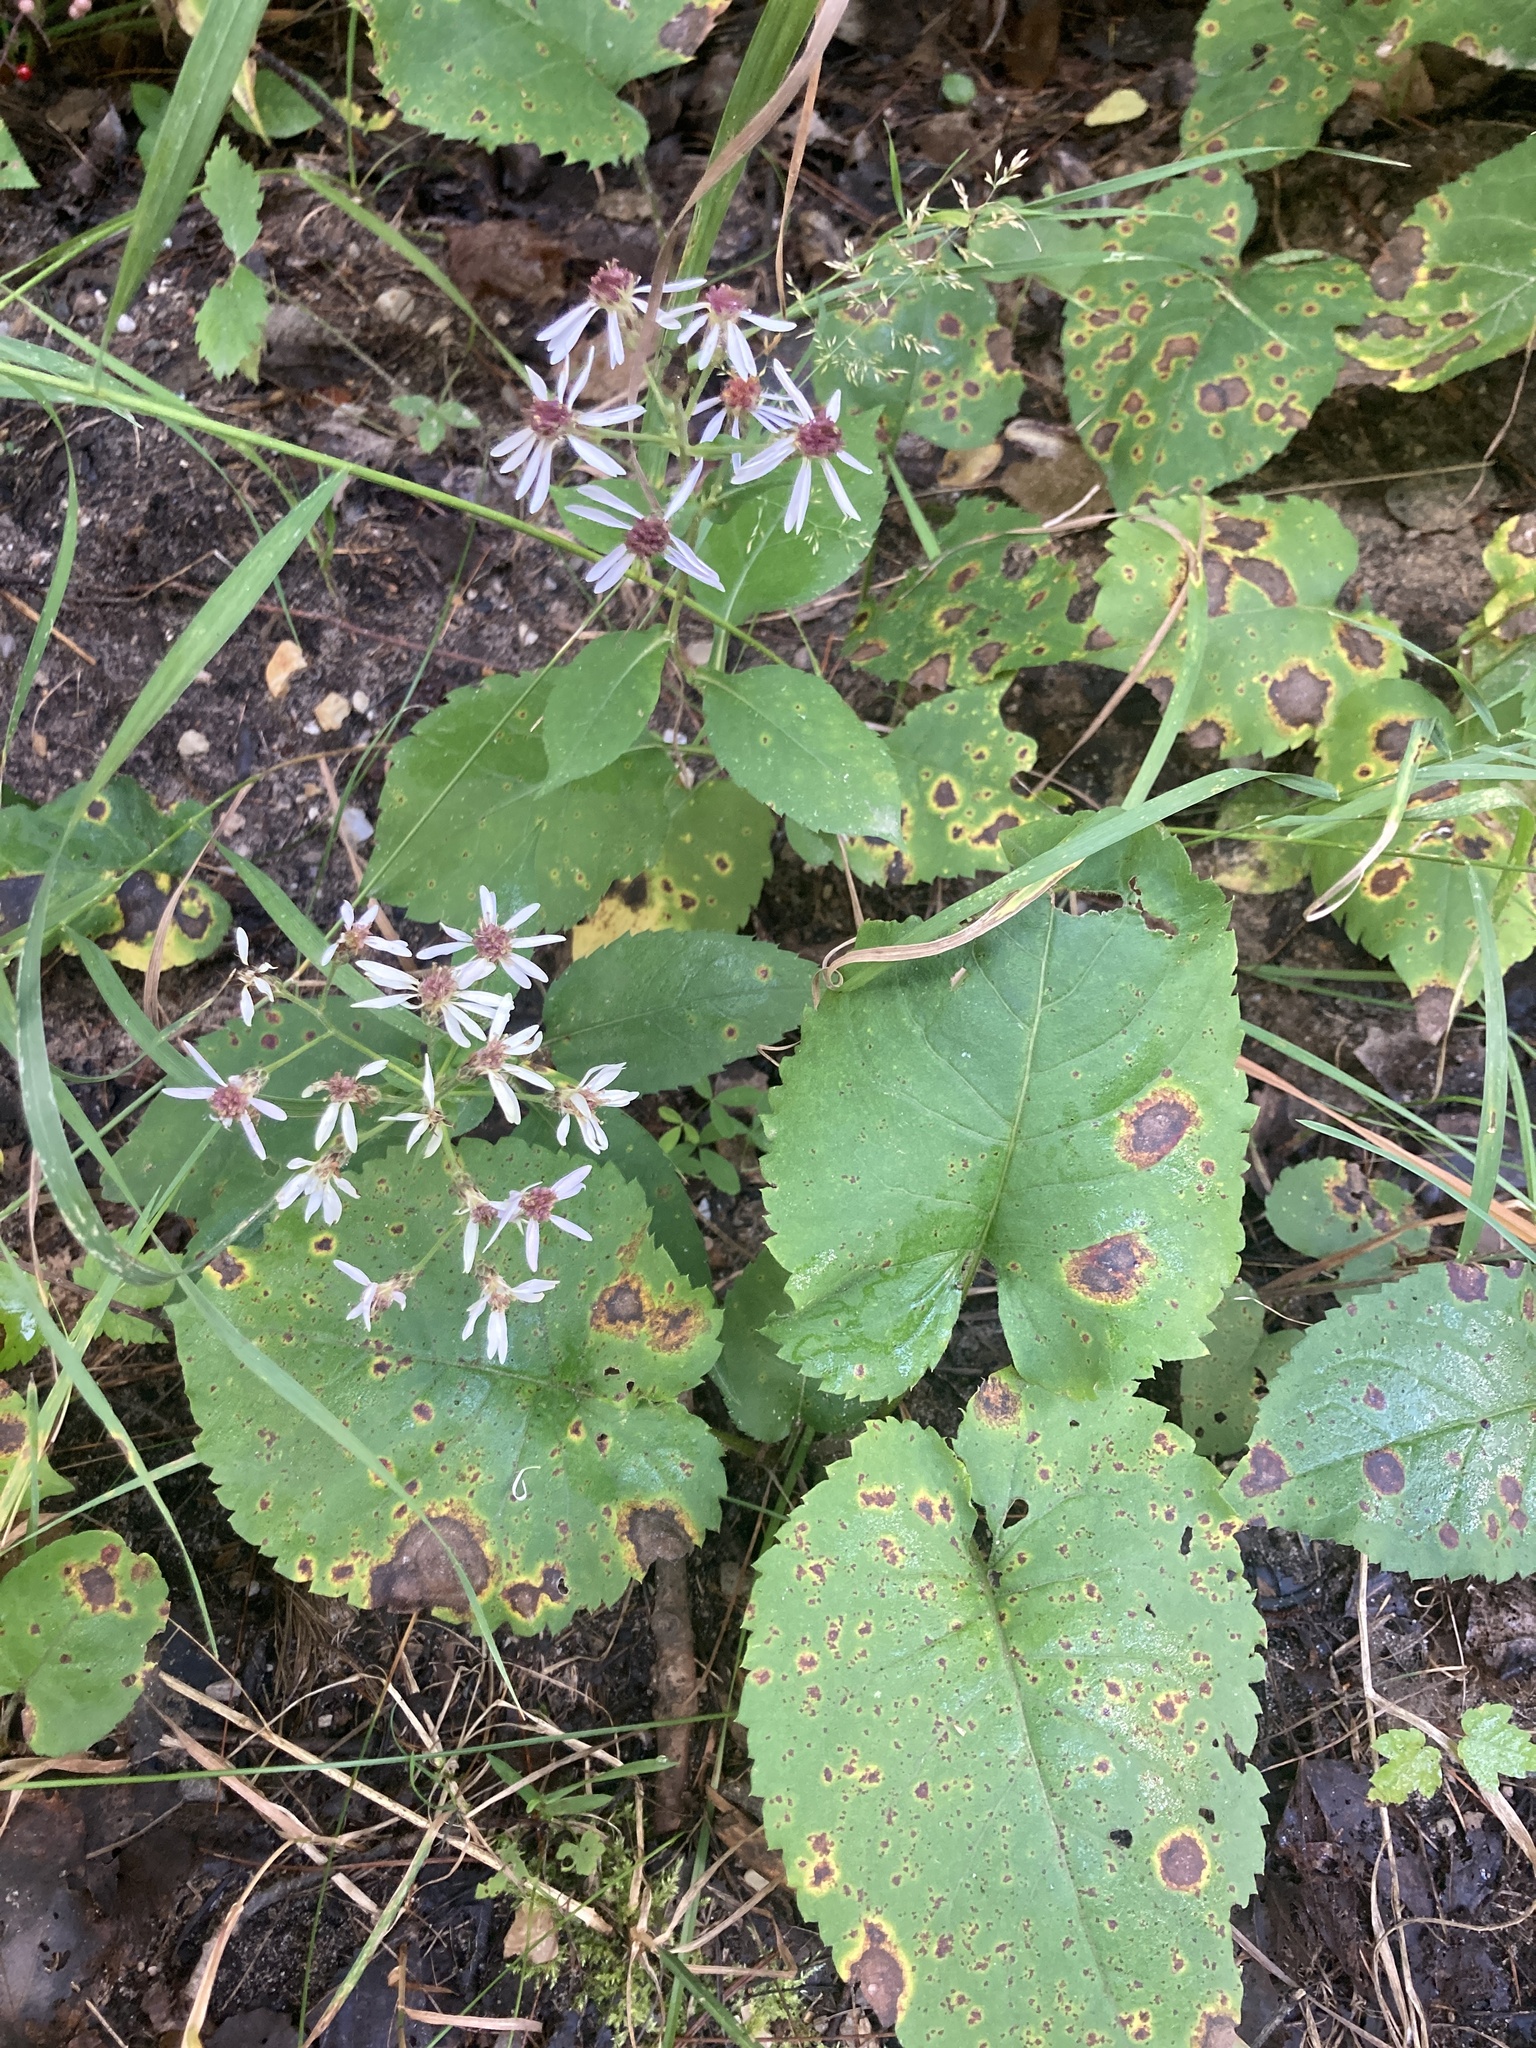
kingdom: Plantae
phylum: Tracheophyta
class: Magnoliopsida
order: Asterales
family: Asteraceae
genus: Eurybia
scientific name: Eurybia macrophylla
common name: Big-leaved aster
